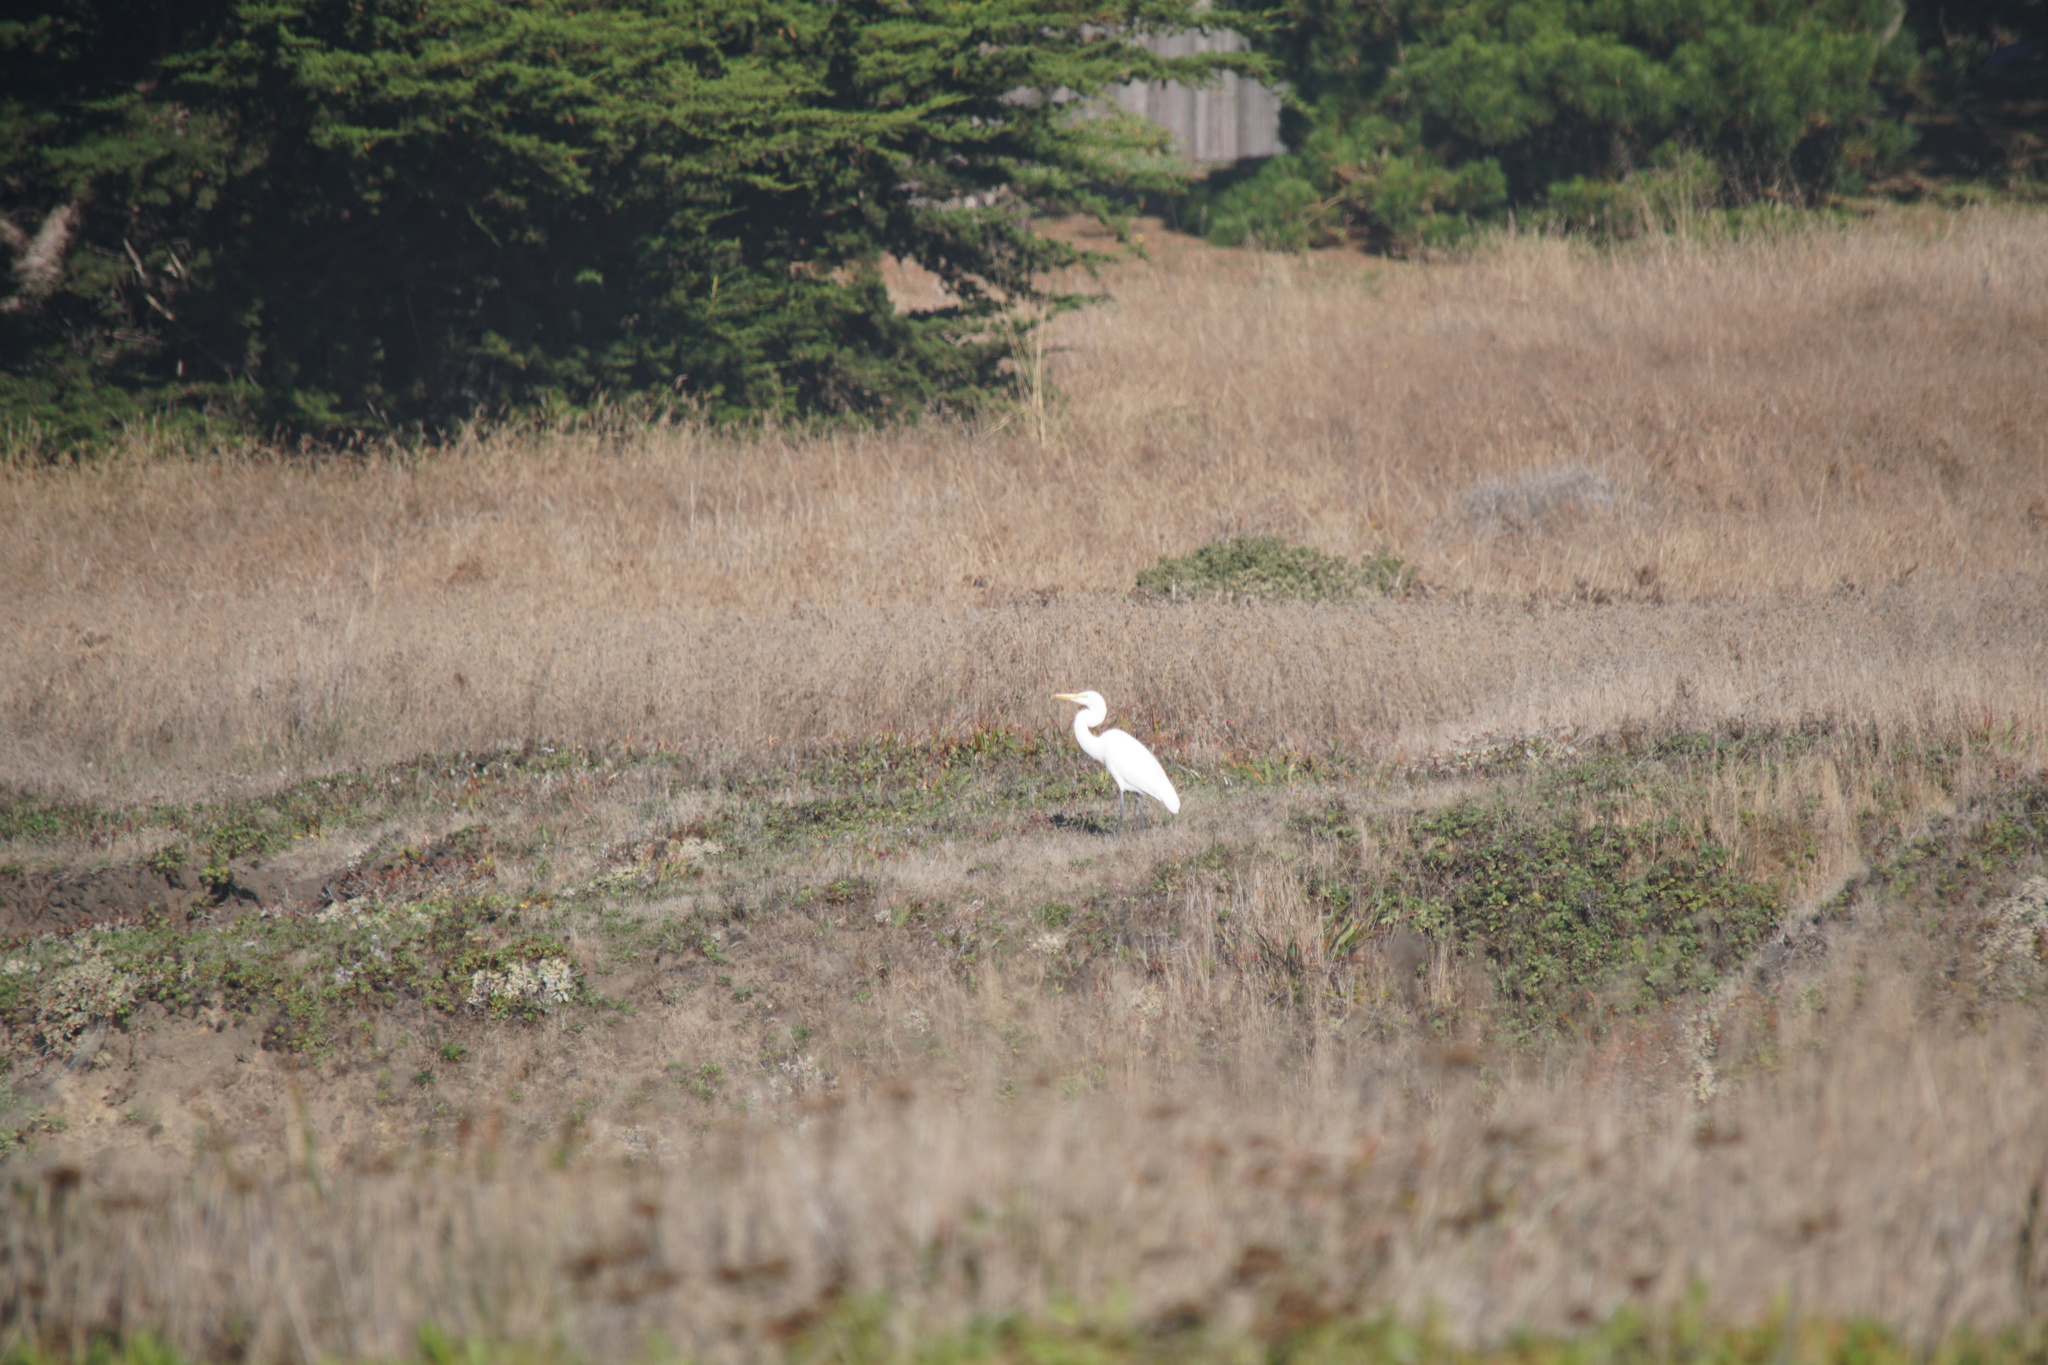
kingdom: Animalia
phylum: Chordata
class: Aves
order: Pelecaniformes
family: Ardeidae
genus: Ardea
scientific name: Ardea alba
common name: Great egret
